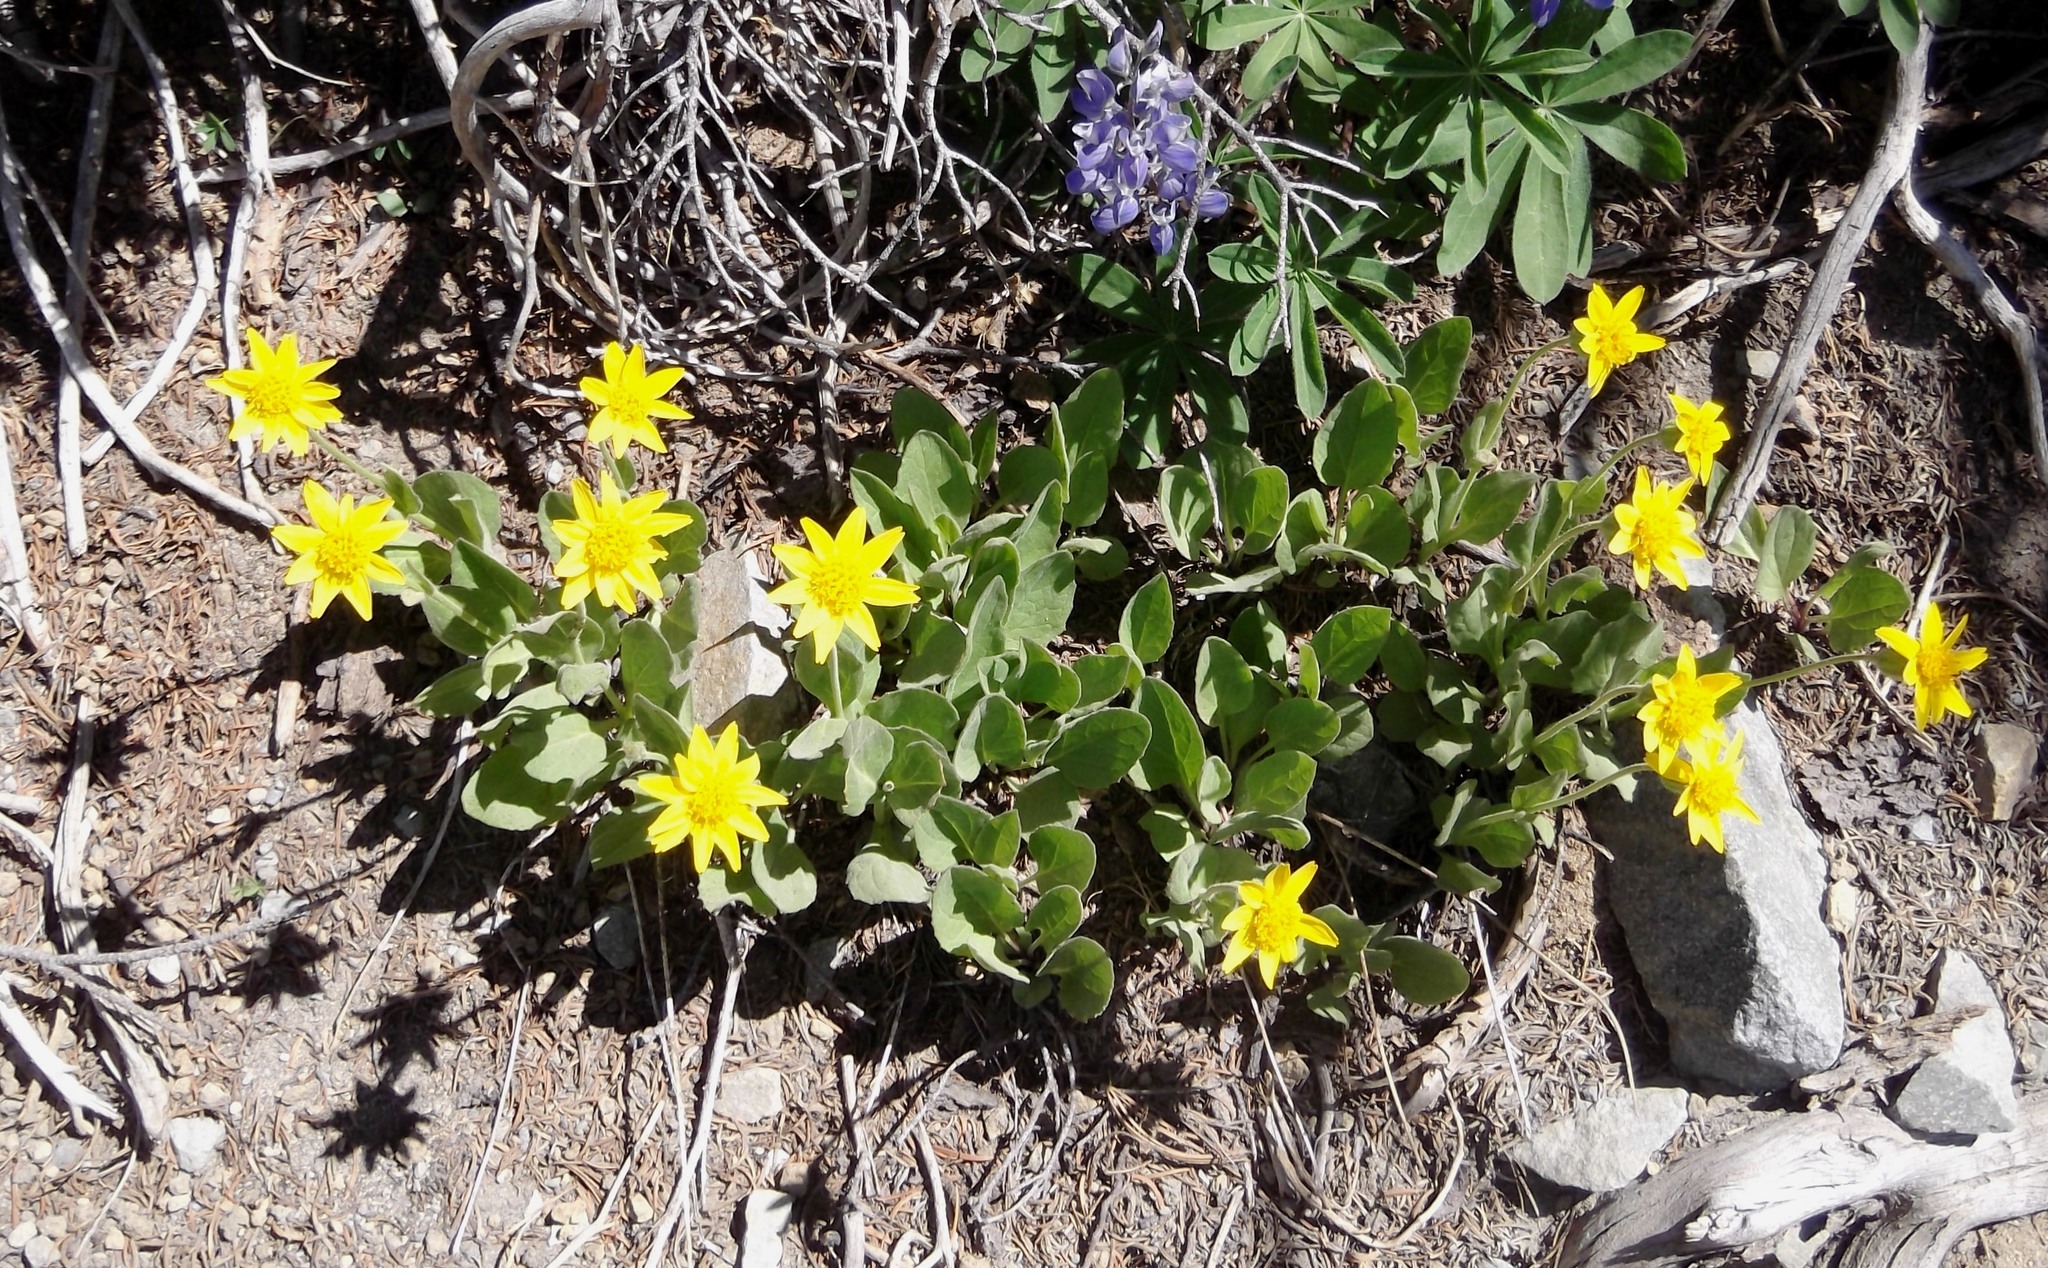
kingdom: Plantae
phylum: Tracheophyta
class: Magnoliopsida
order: Asterales
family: Asteraceae
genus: Arnica
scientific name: Arnica ovata
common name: Diverse arnica
